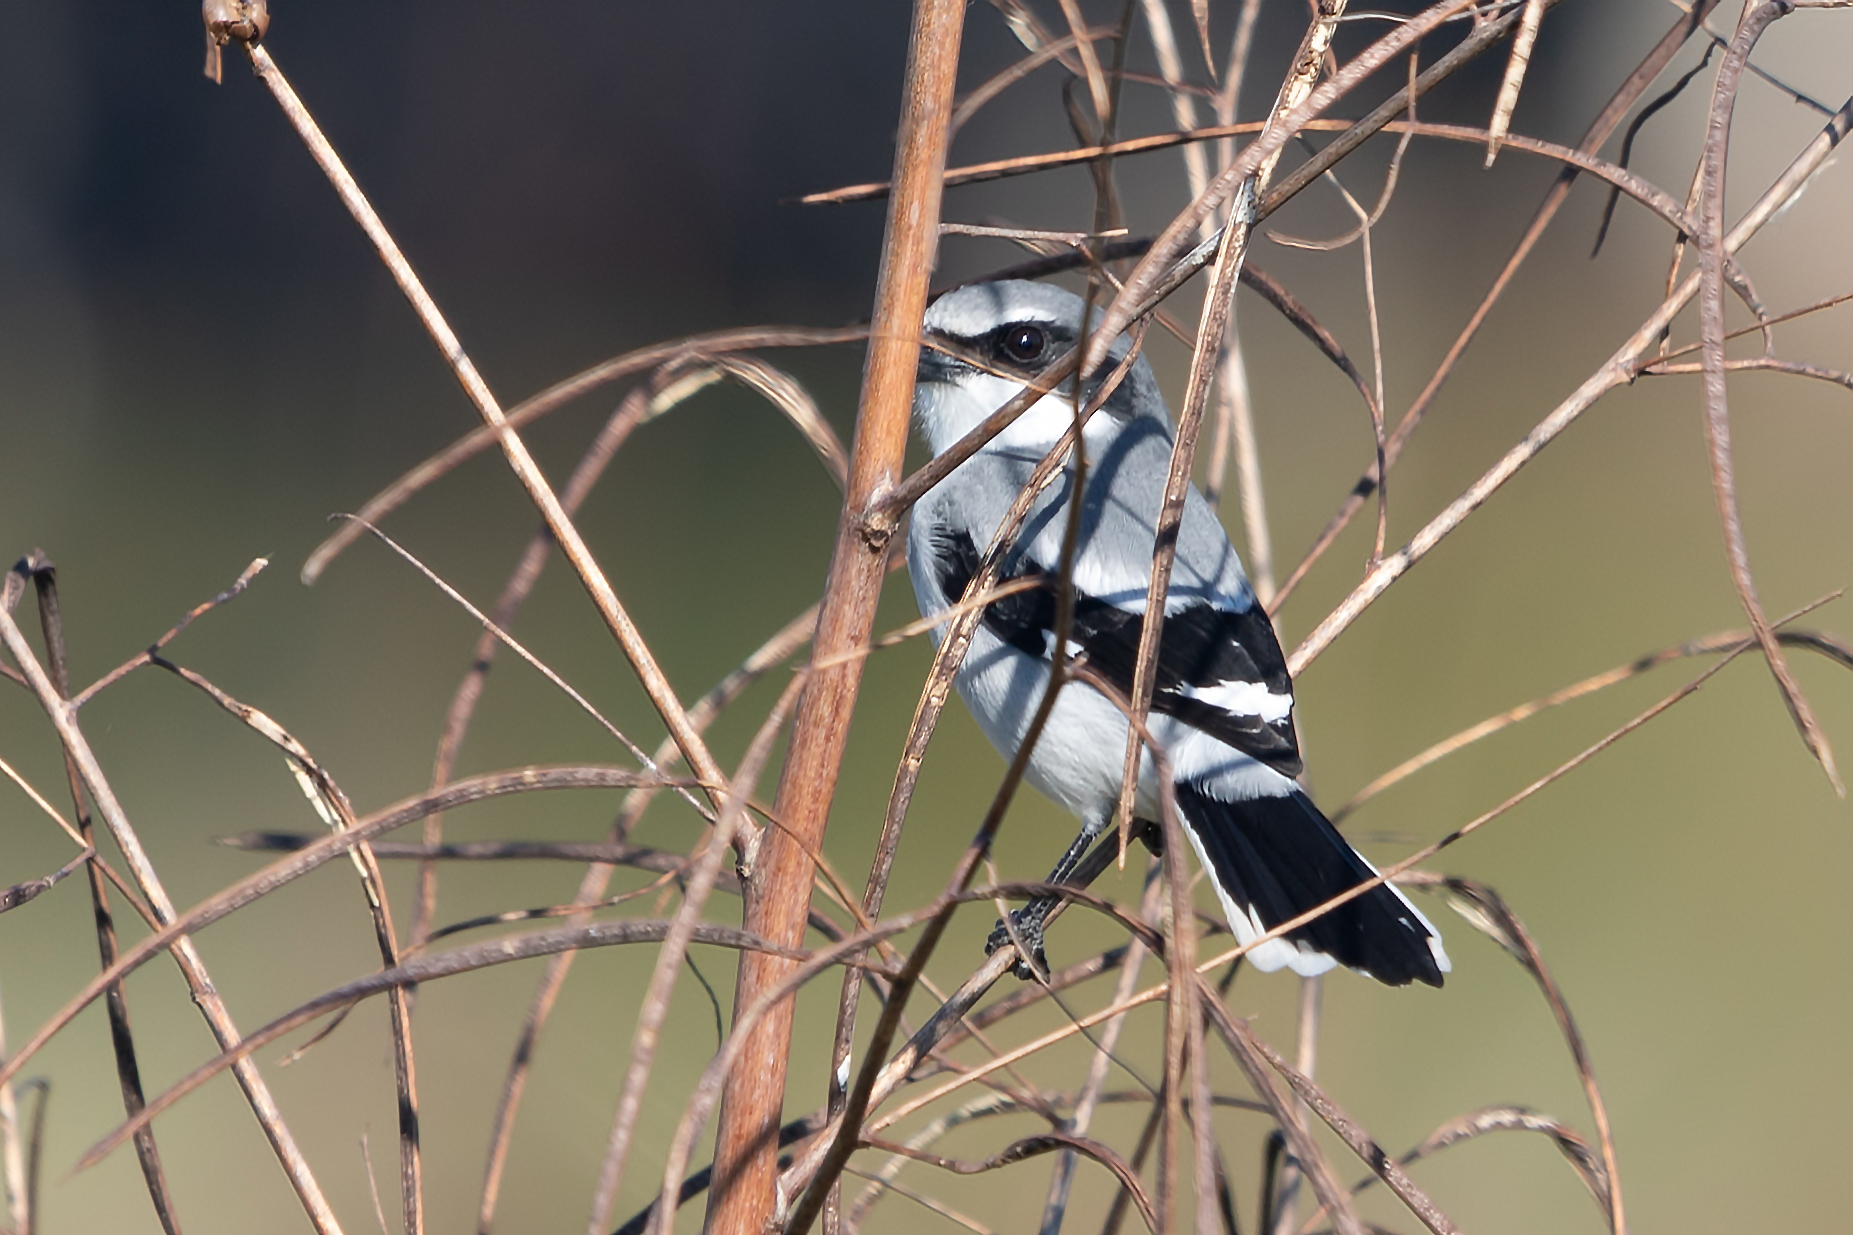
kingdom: Animalia
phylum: Chordata
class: Aves
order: Passeriformes
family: Laniidae
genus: Lanius
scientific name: Lanius ludovicianus
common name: Loggerhead shrike
